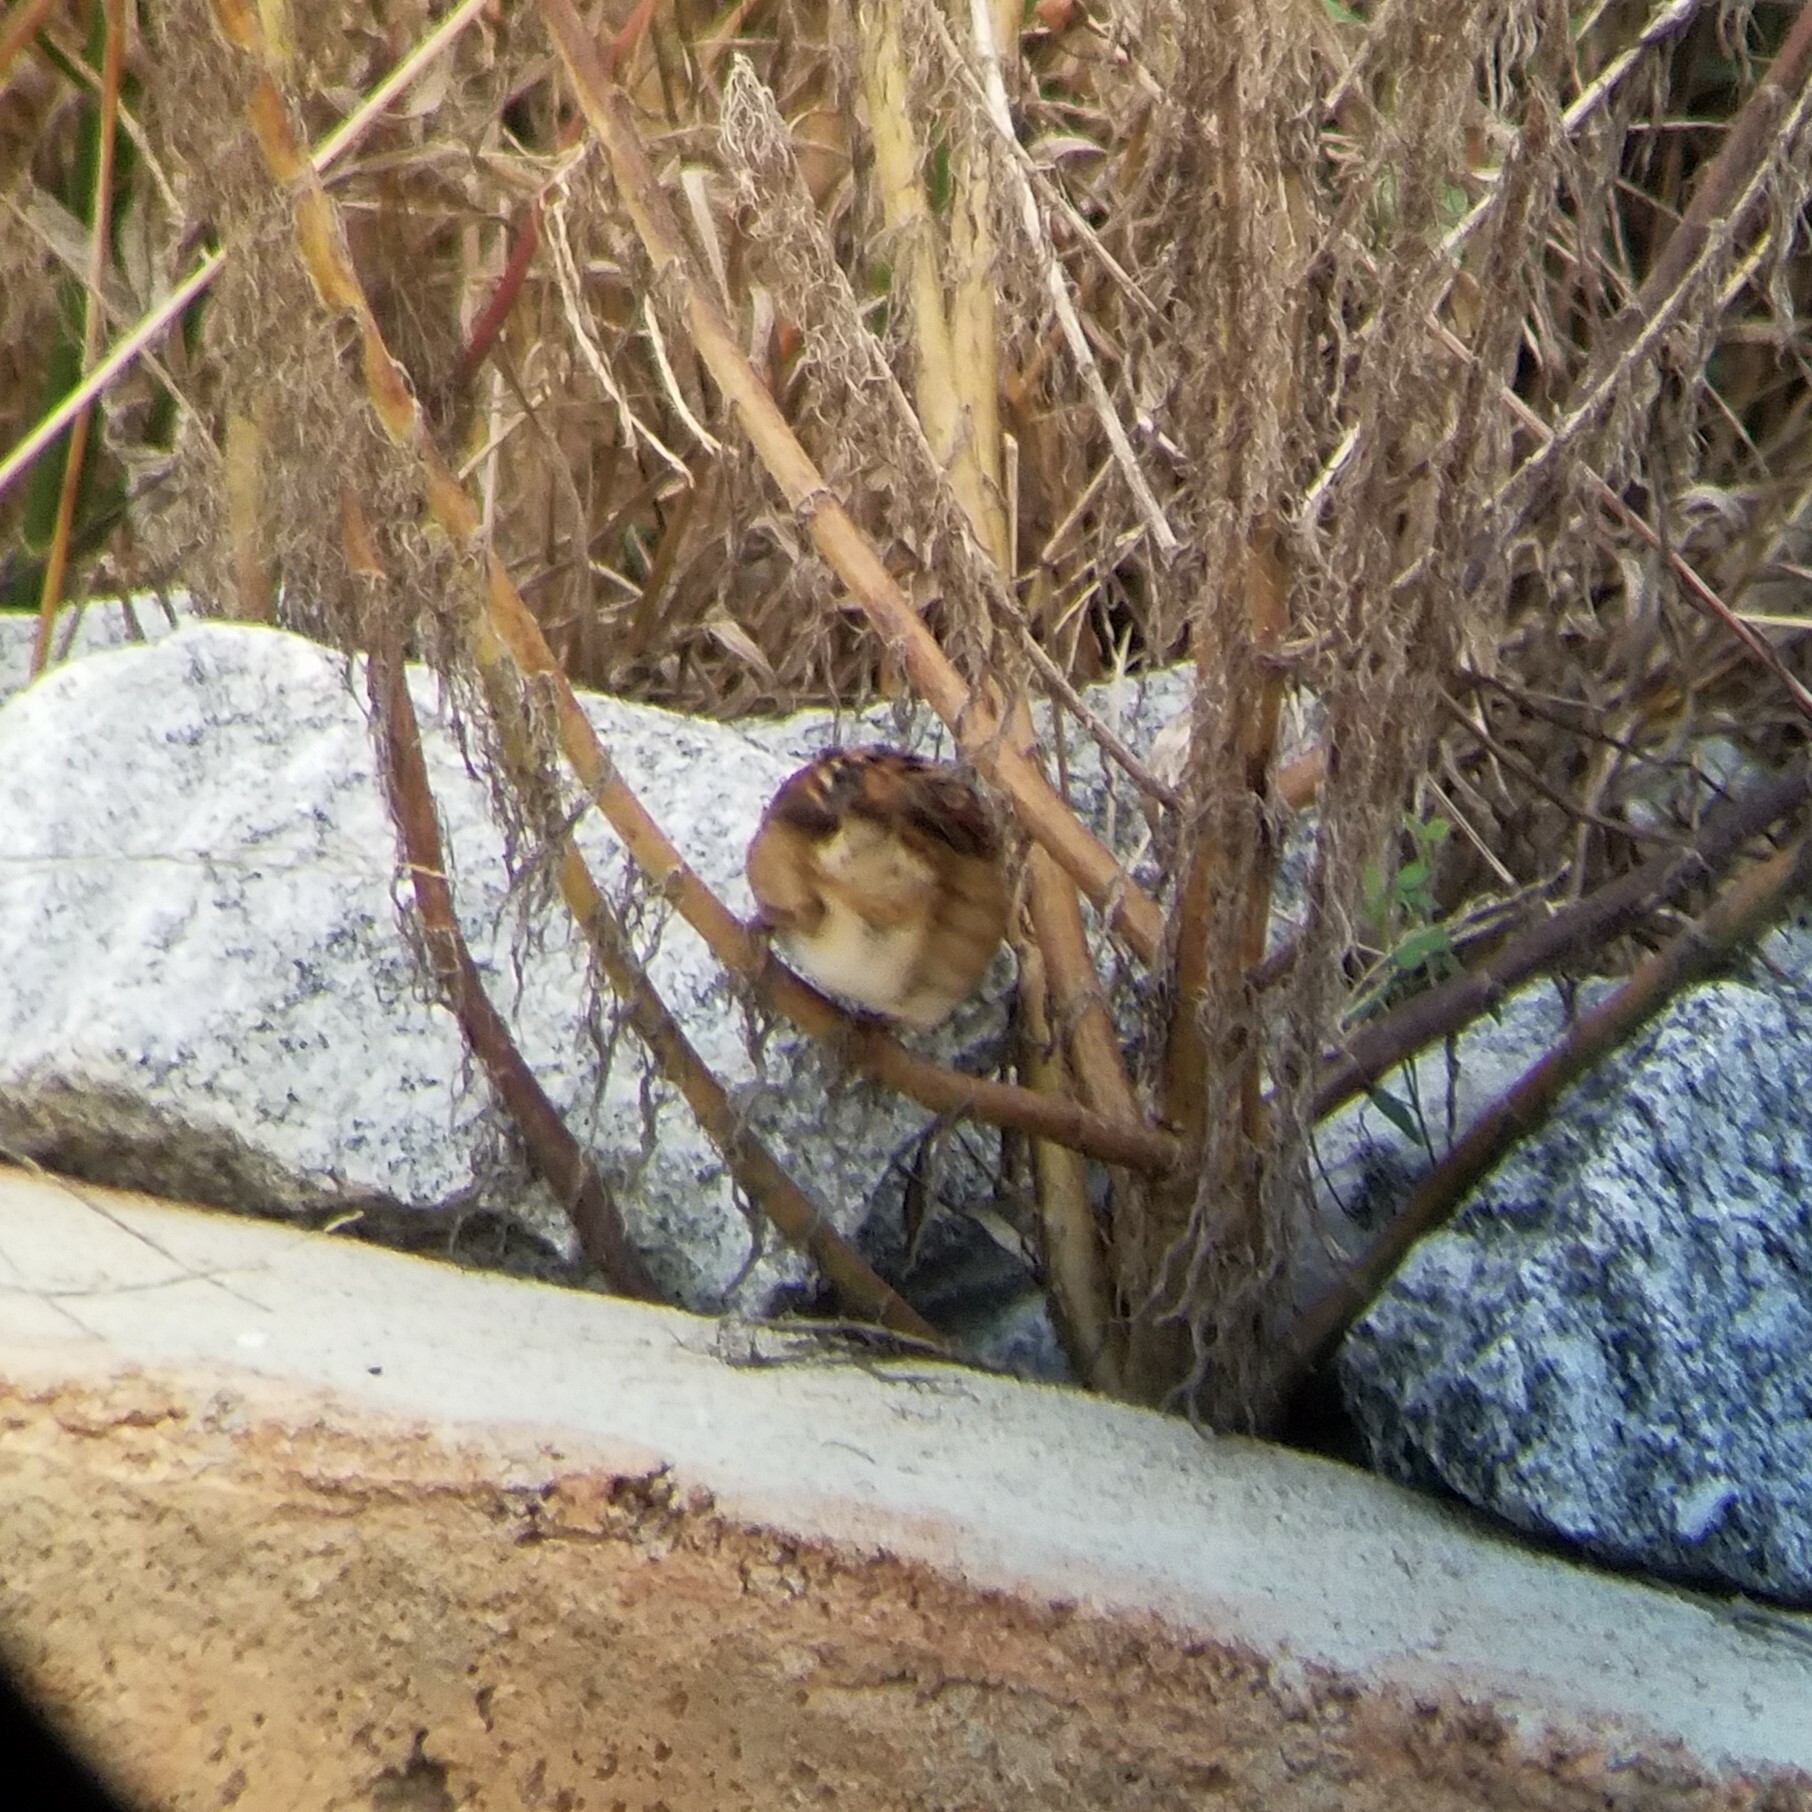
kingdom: Animalia
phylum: Chordata
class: Aves
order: Passeriformes
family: Passerellidae
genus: Melospiza
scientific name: Melospiza georgiana
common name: Swamp sparrow
